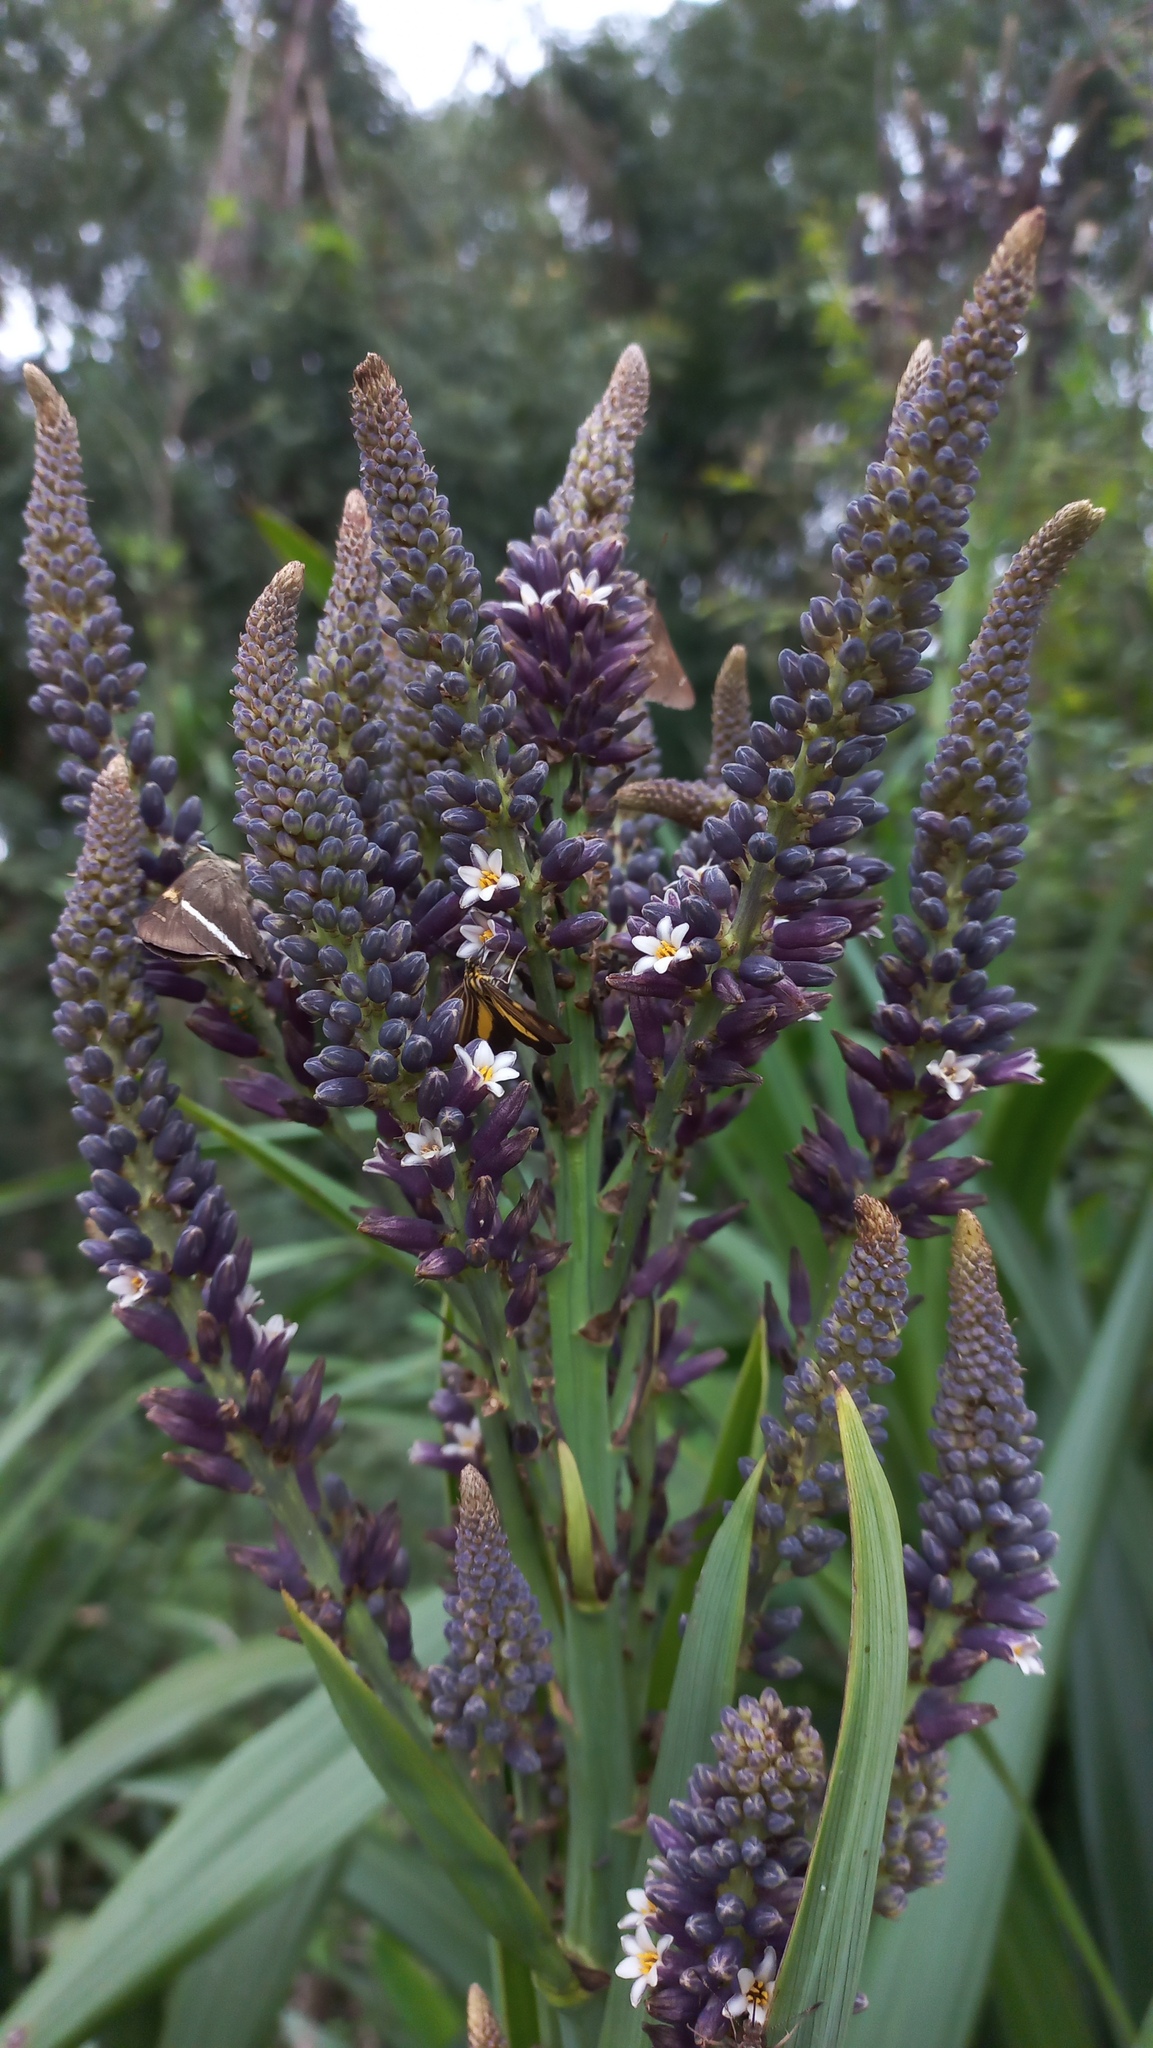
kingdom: Plantae
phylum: Tracheophyta
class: Liliopsida
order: Asparagales
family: Asparagaceae
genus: Cordyline
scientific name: Cordyline sellowiana
